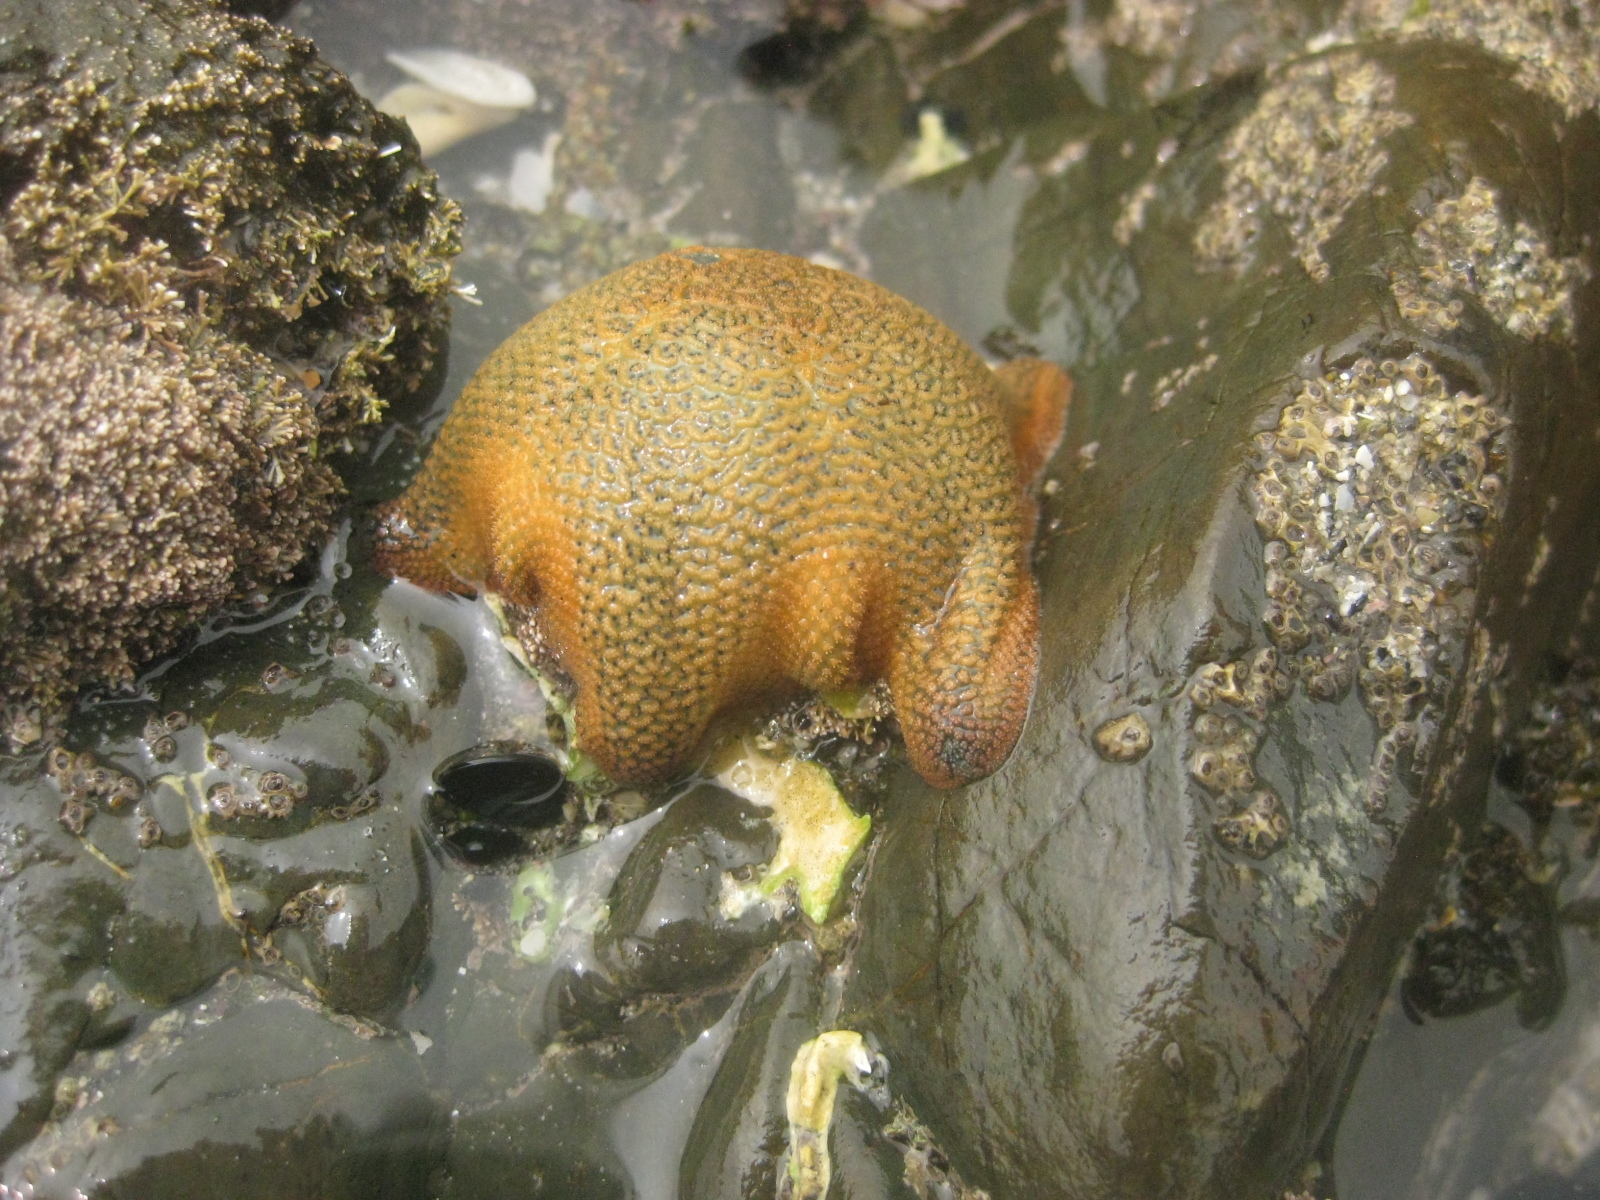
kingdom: Animalia
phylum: Echinodermata
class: Asteroidea
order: Valvatida
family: Asterinidae
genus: Patiriella
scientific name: Patiriella regularis
